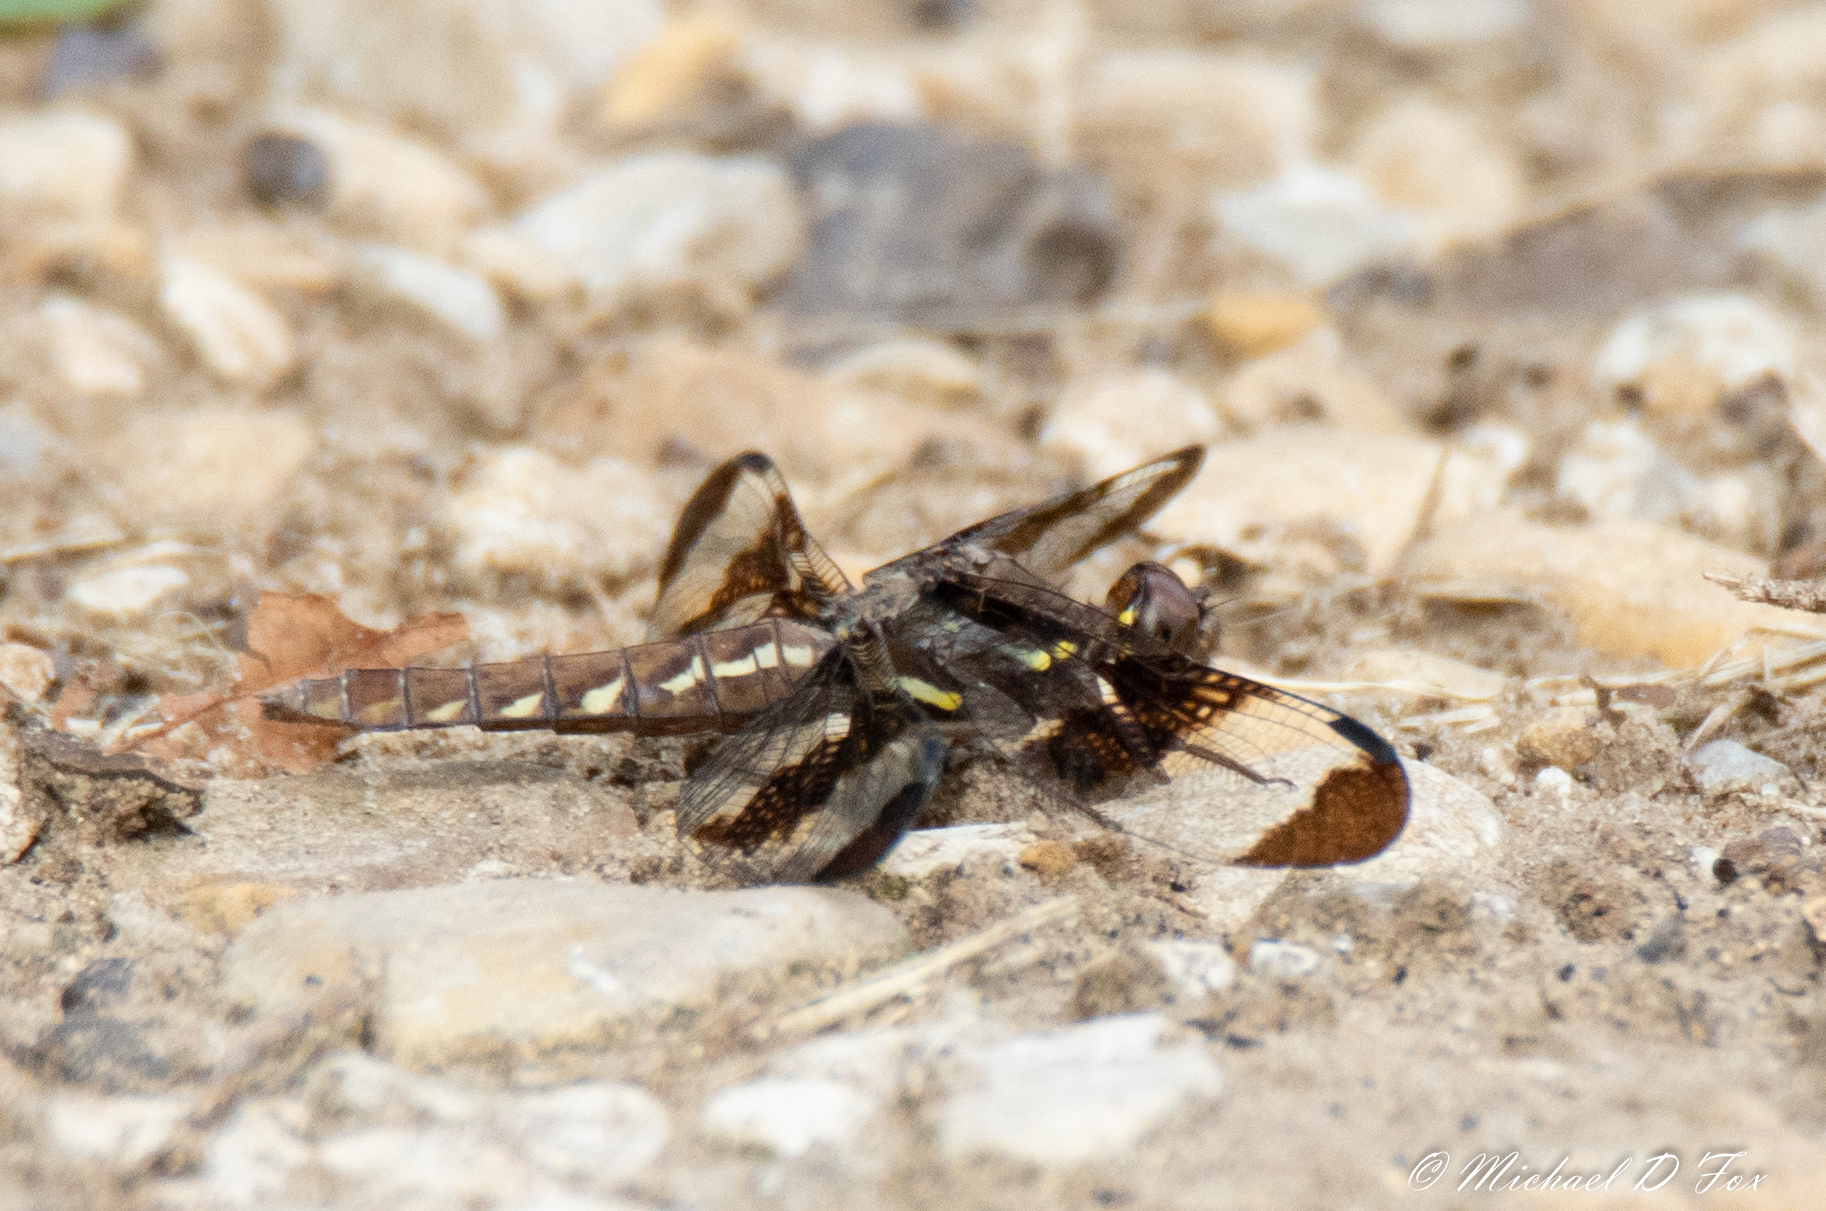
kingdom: Animalia
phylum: Arthropoda
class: Insecta
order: Odonata
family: Libellulidae
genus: Plathemis
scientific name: Plathemis lydia
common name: Common whitetail
